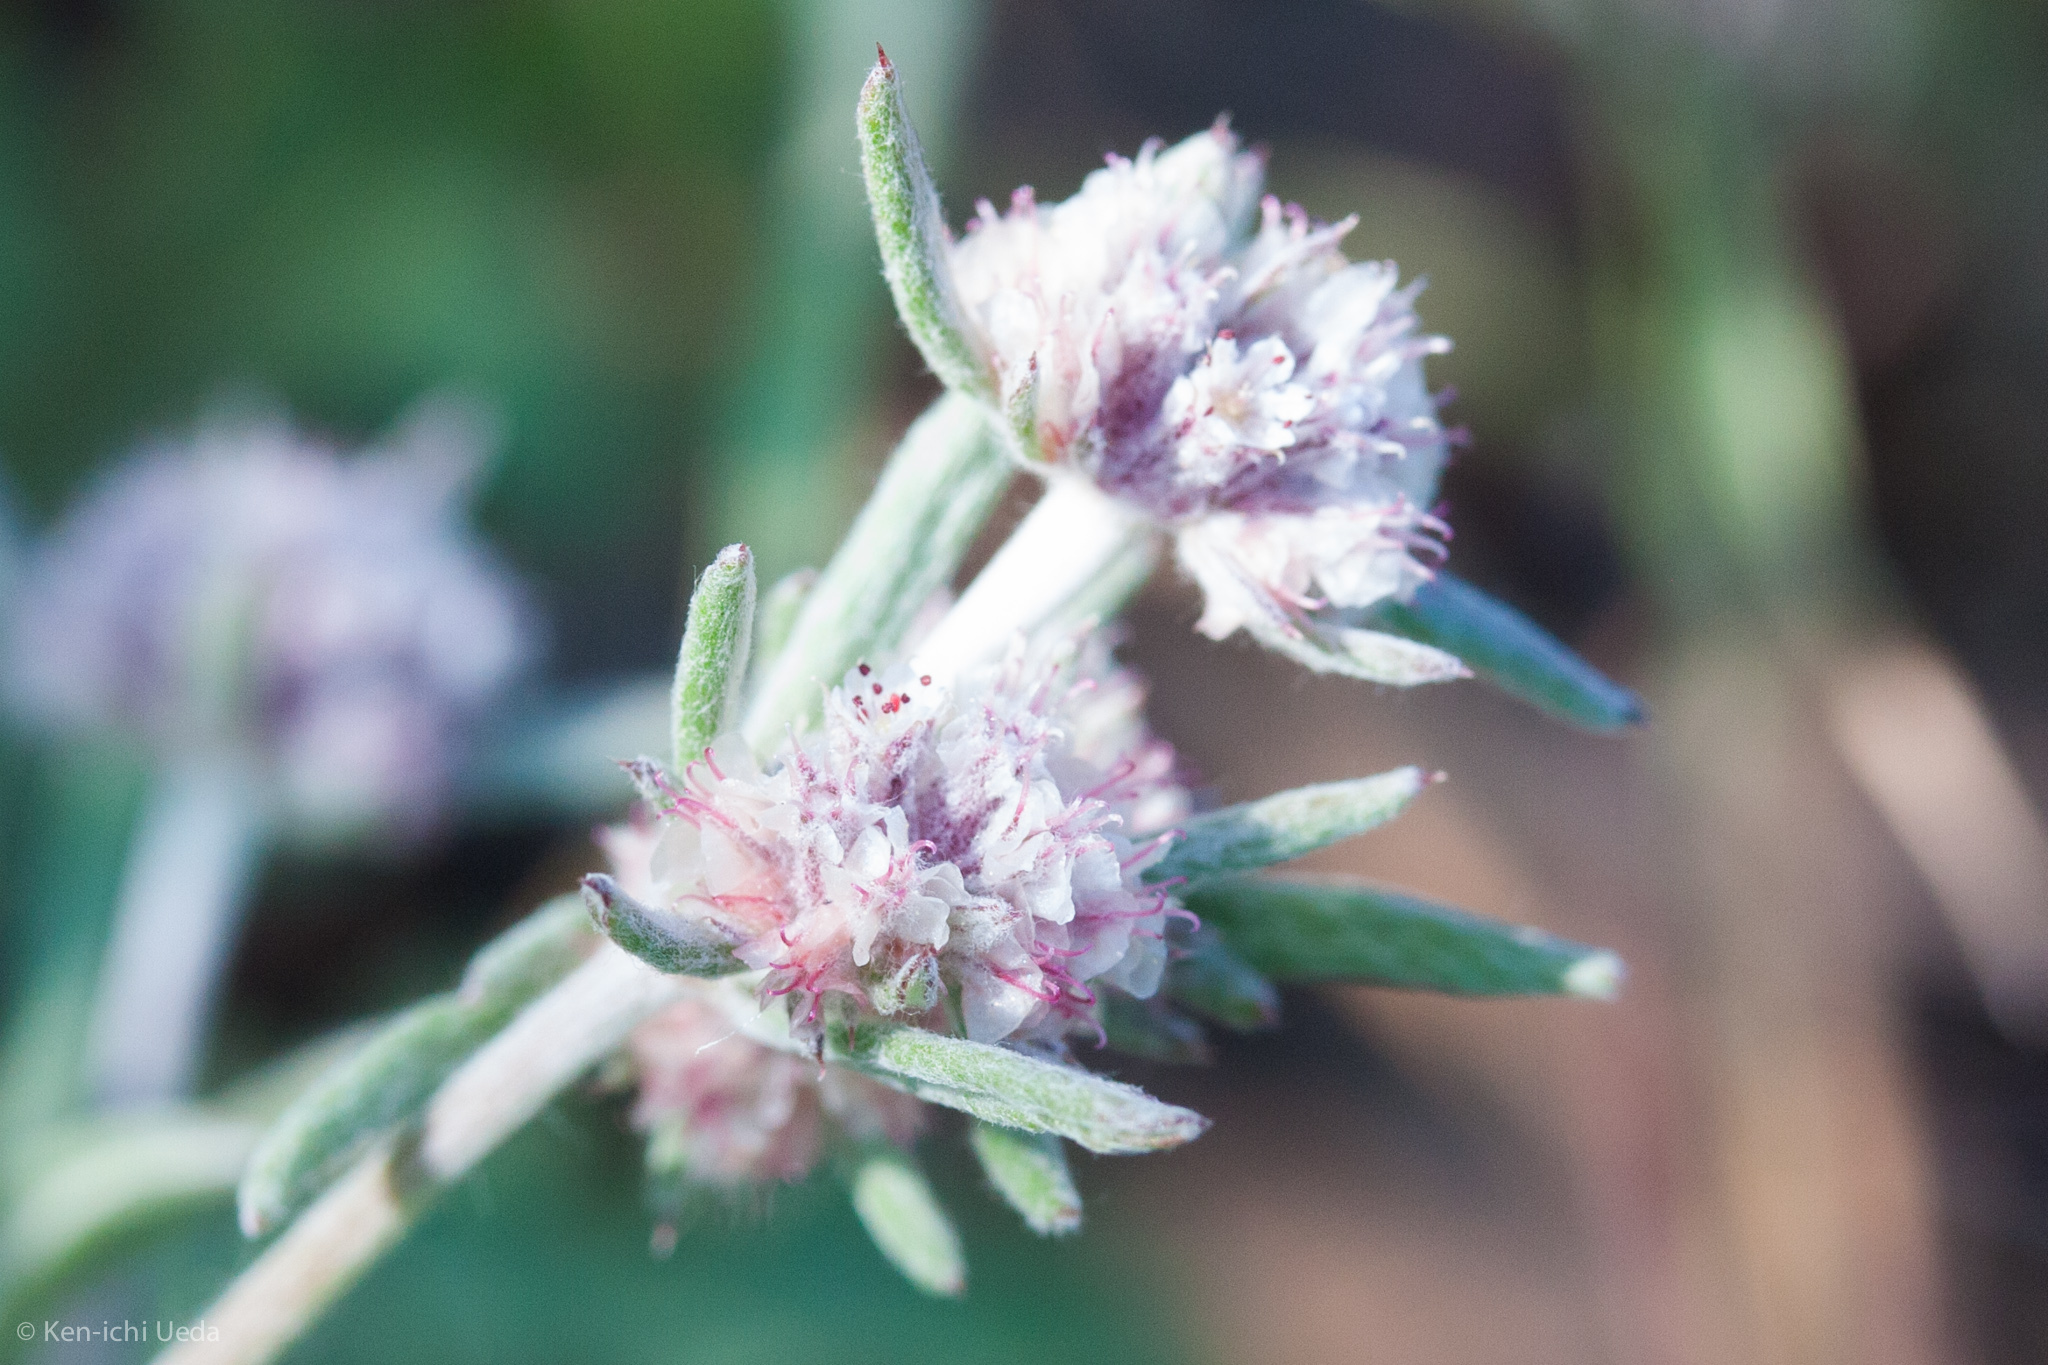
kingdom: Plantae
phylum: Tracheophyta
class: Magnoliopsida
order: Caryophyllales
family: Polygonaceae
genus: Chorizanthe
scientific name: Chorizanthe membranacea
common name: Pink spineflower
